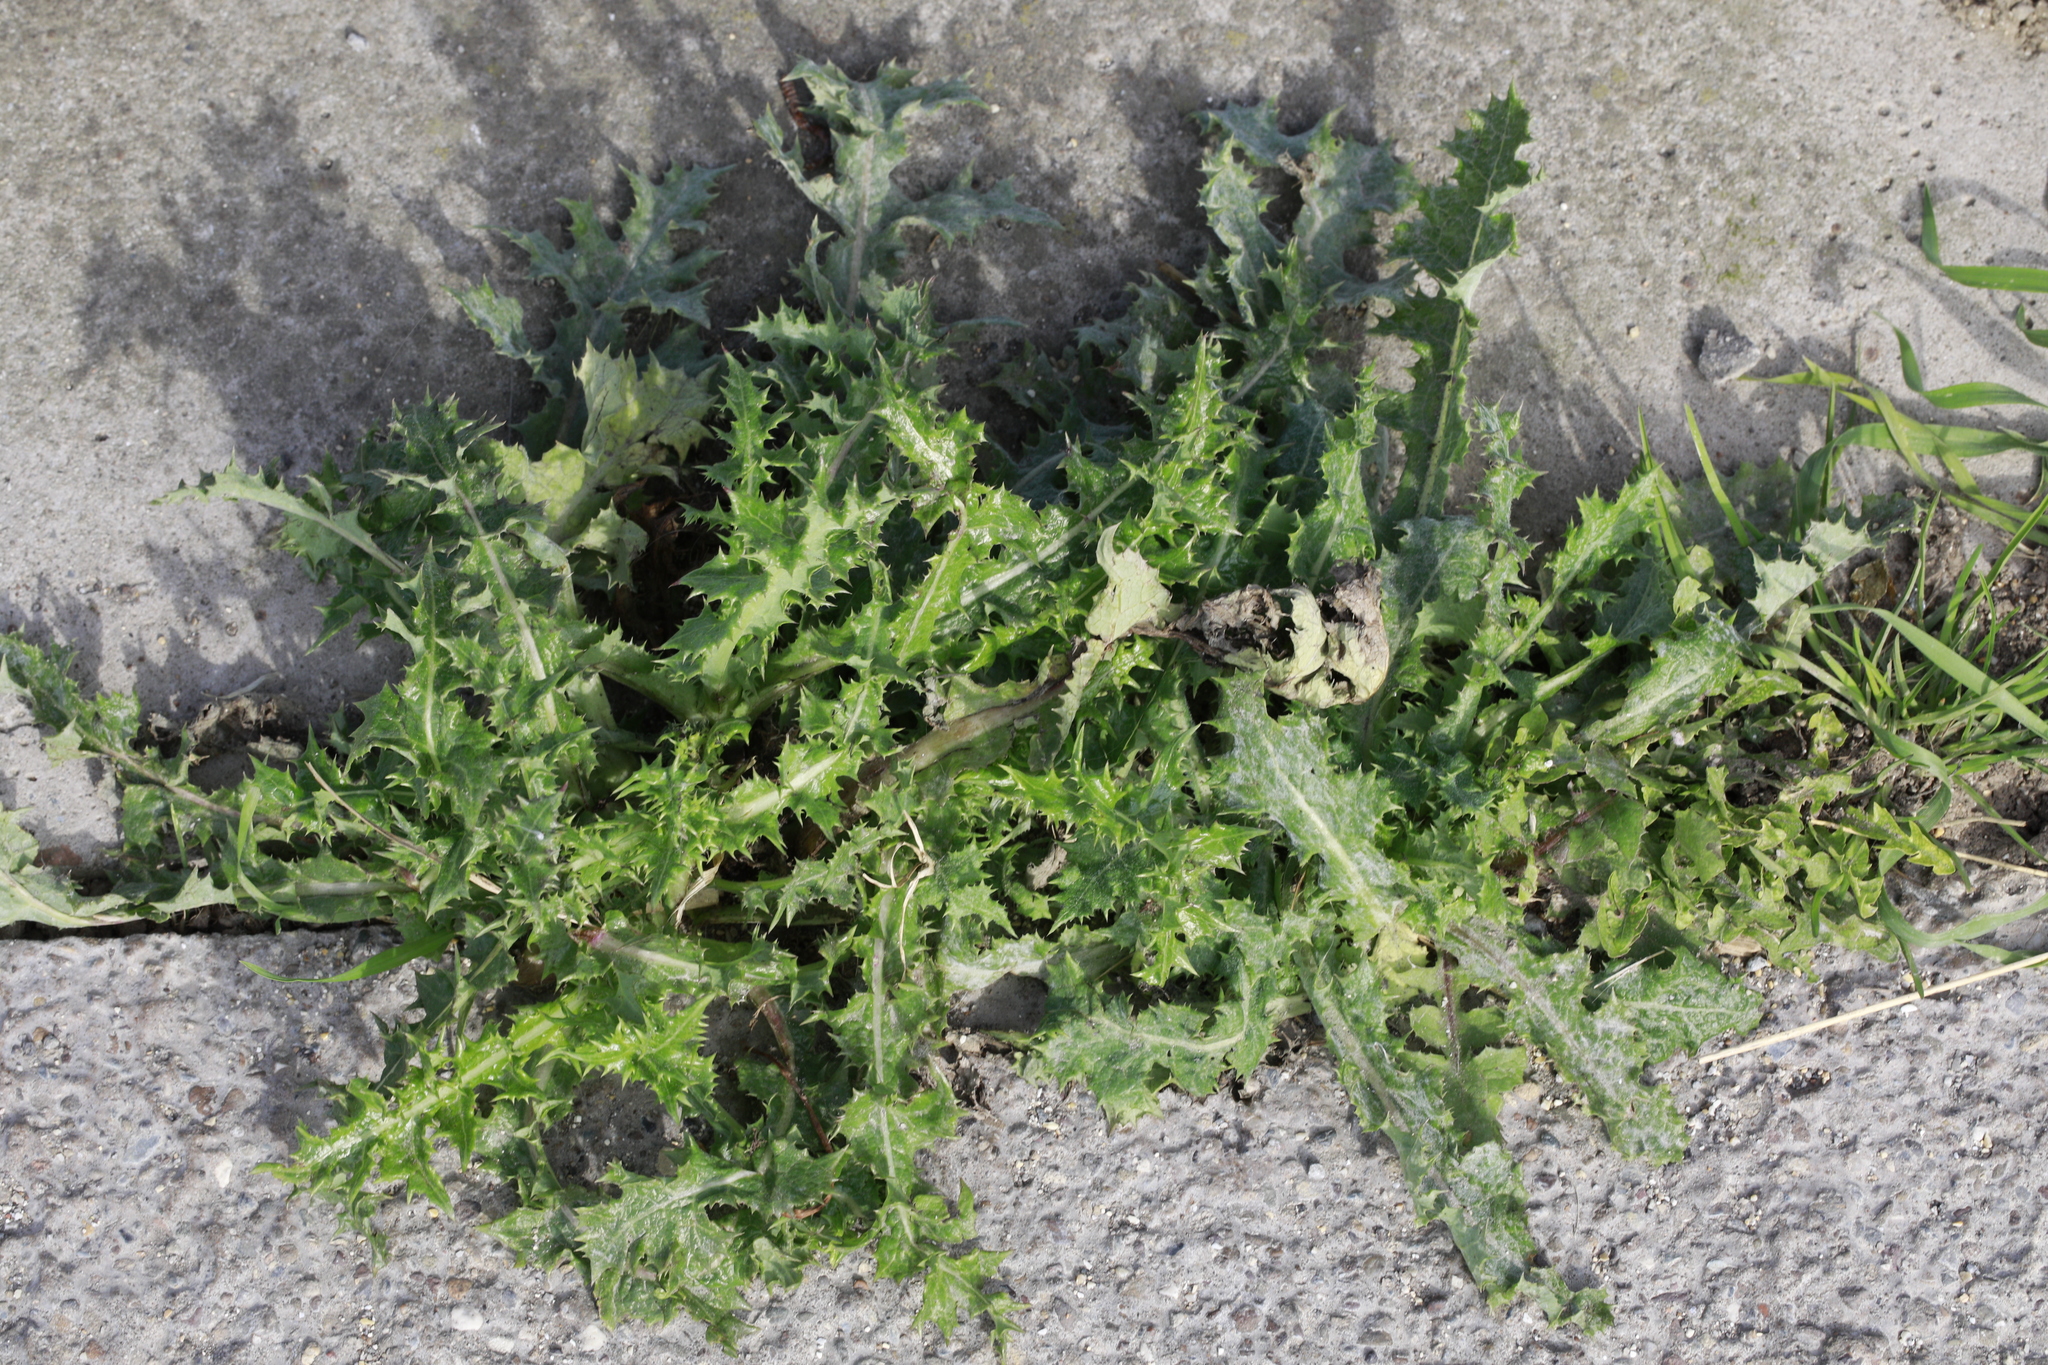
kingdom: Plantae
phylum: Tracheophyta
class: Magnoliopsida
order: Asterales
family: Asteraceae
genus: Sonchus
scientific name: Sonchus asper
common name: Prickly sow-thistle
